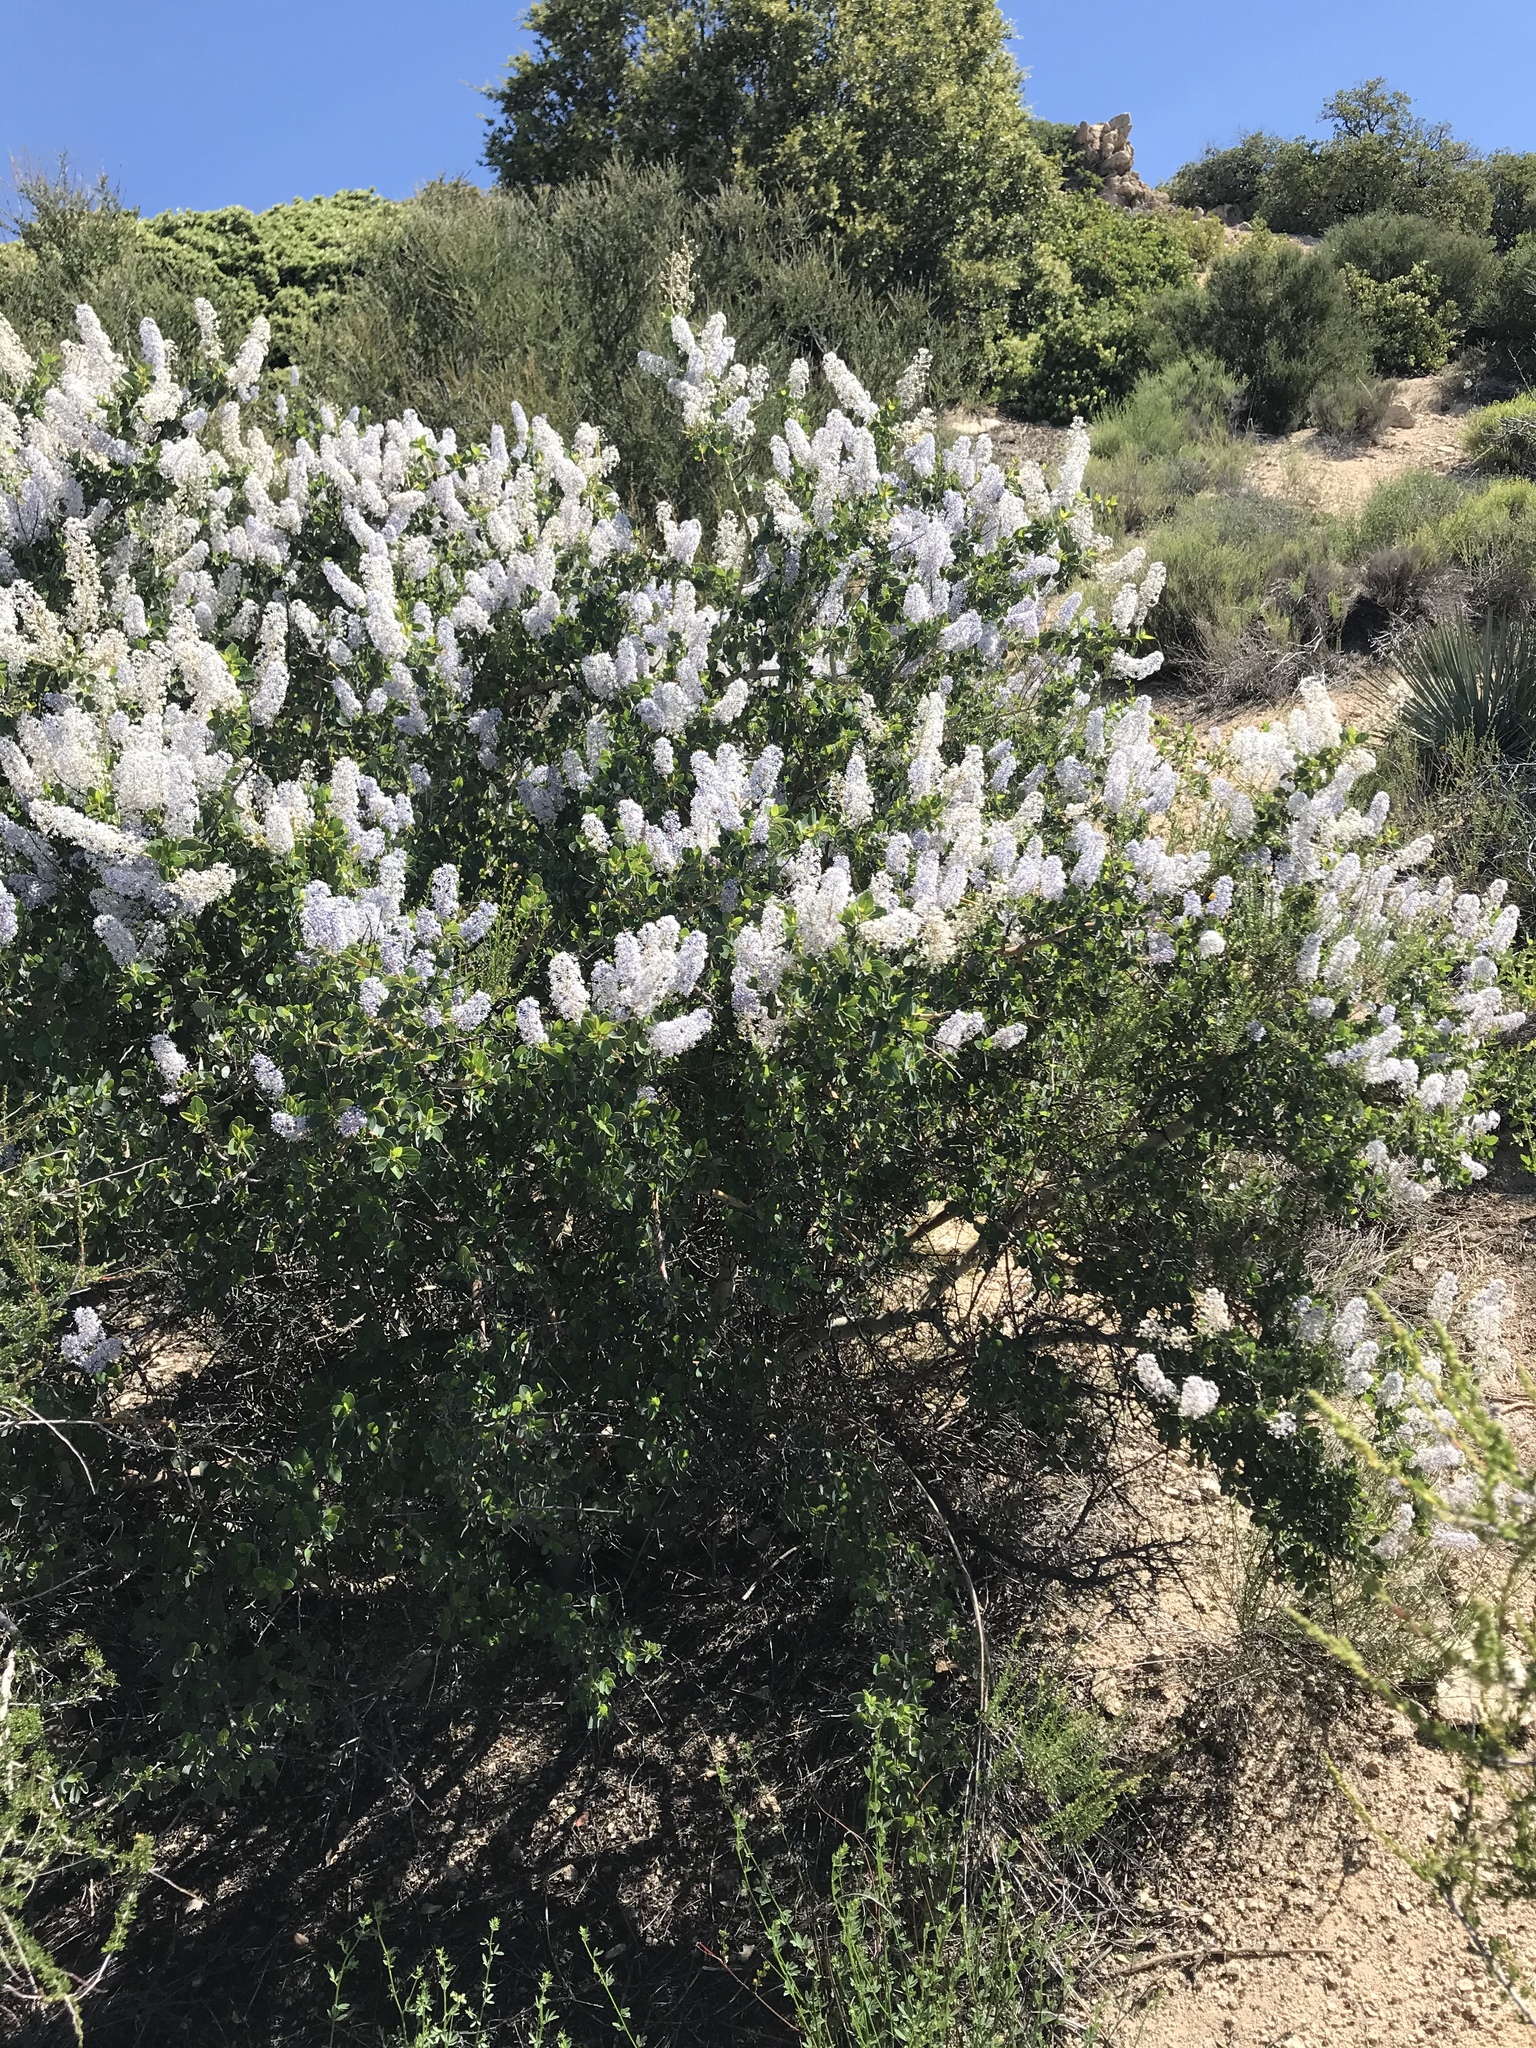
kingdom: Plantae
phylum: Tracheophyta
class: Magnoliopsida
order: Rosales
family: Rhamnaceae
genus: Ceanothus
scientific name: Ceanothus leucodermis
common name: Chaparral whitethorn
